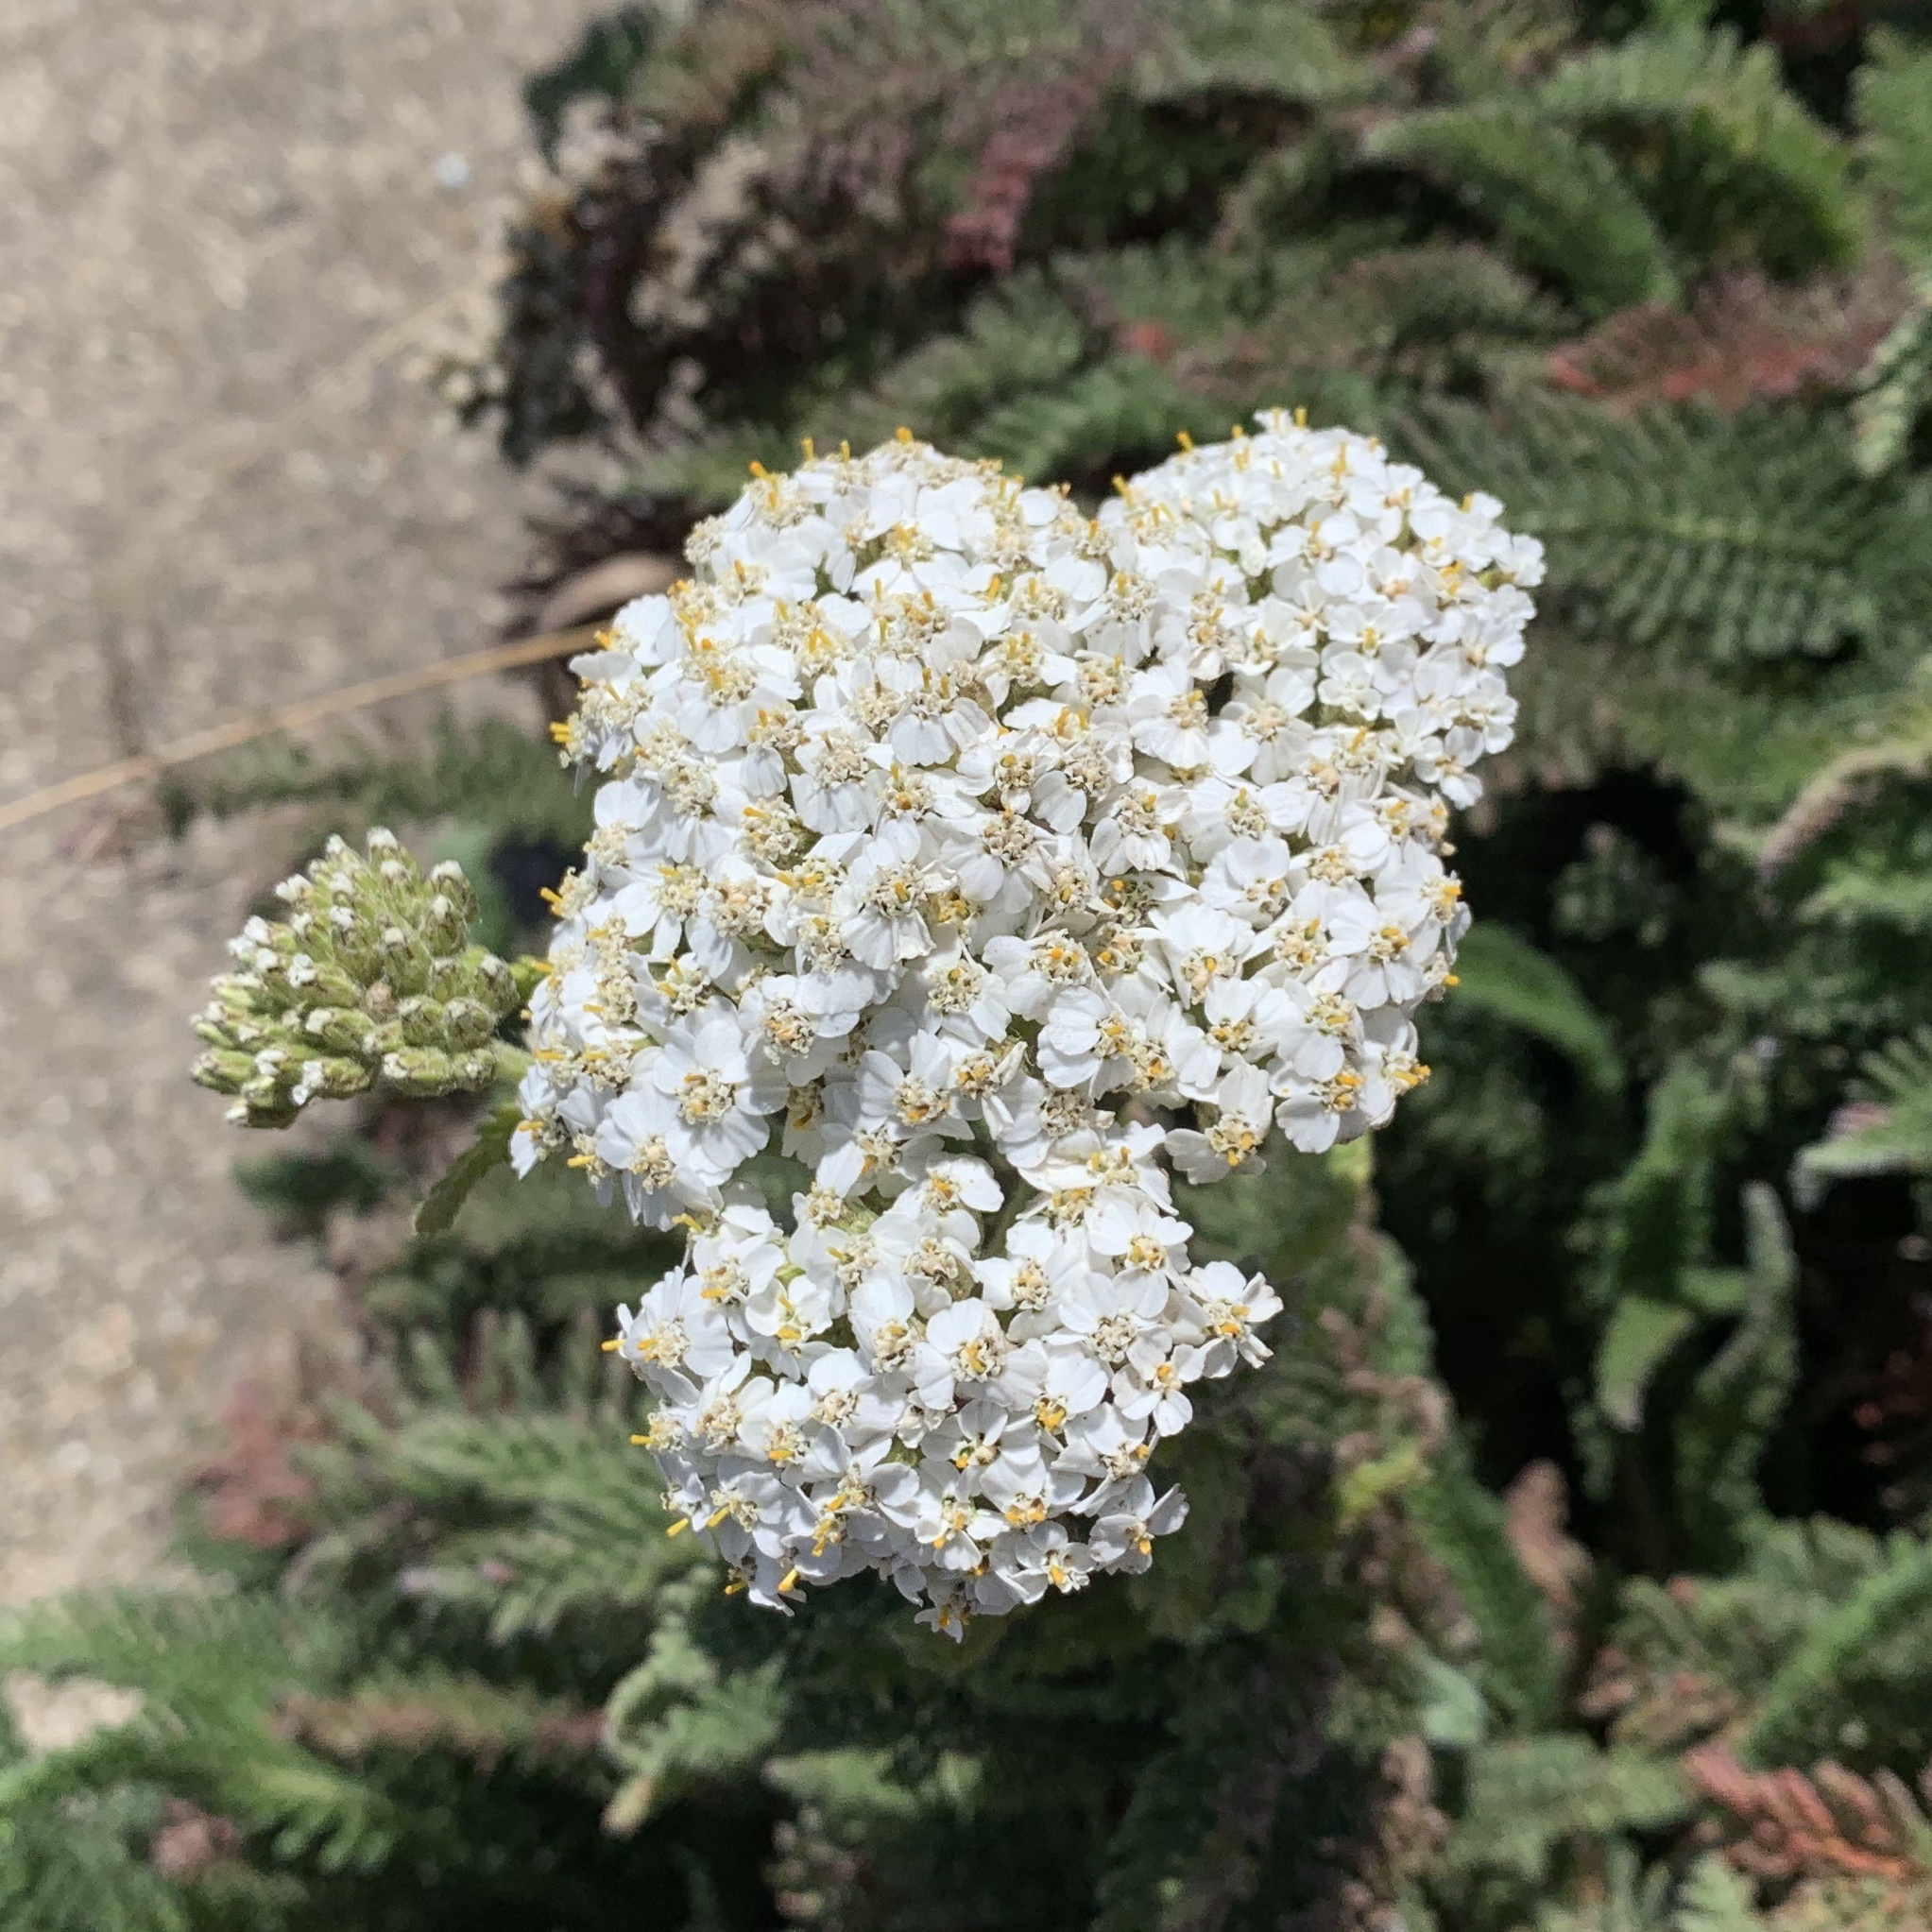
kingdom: Plantae
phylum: Tracheophyta
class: Magnoliopsida
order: Asterales
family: Asteraceae
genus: Achillea
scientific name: Achillea millefolium
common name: Yarrow
